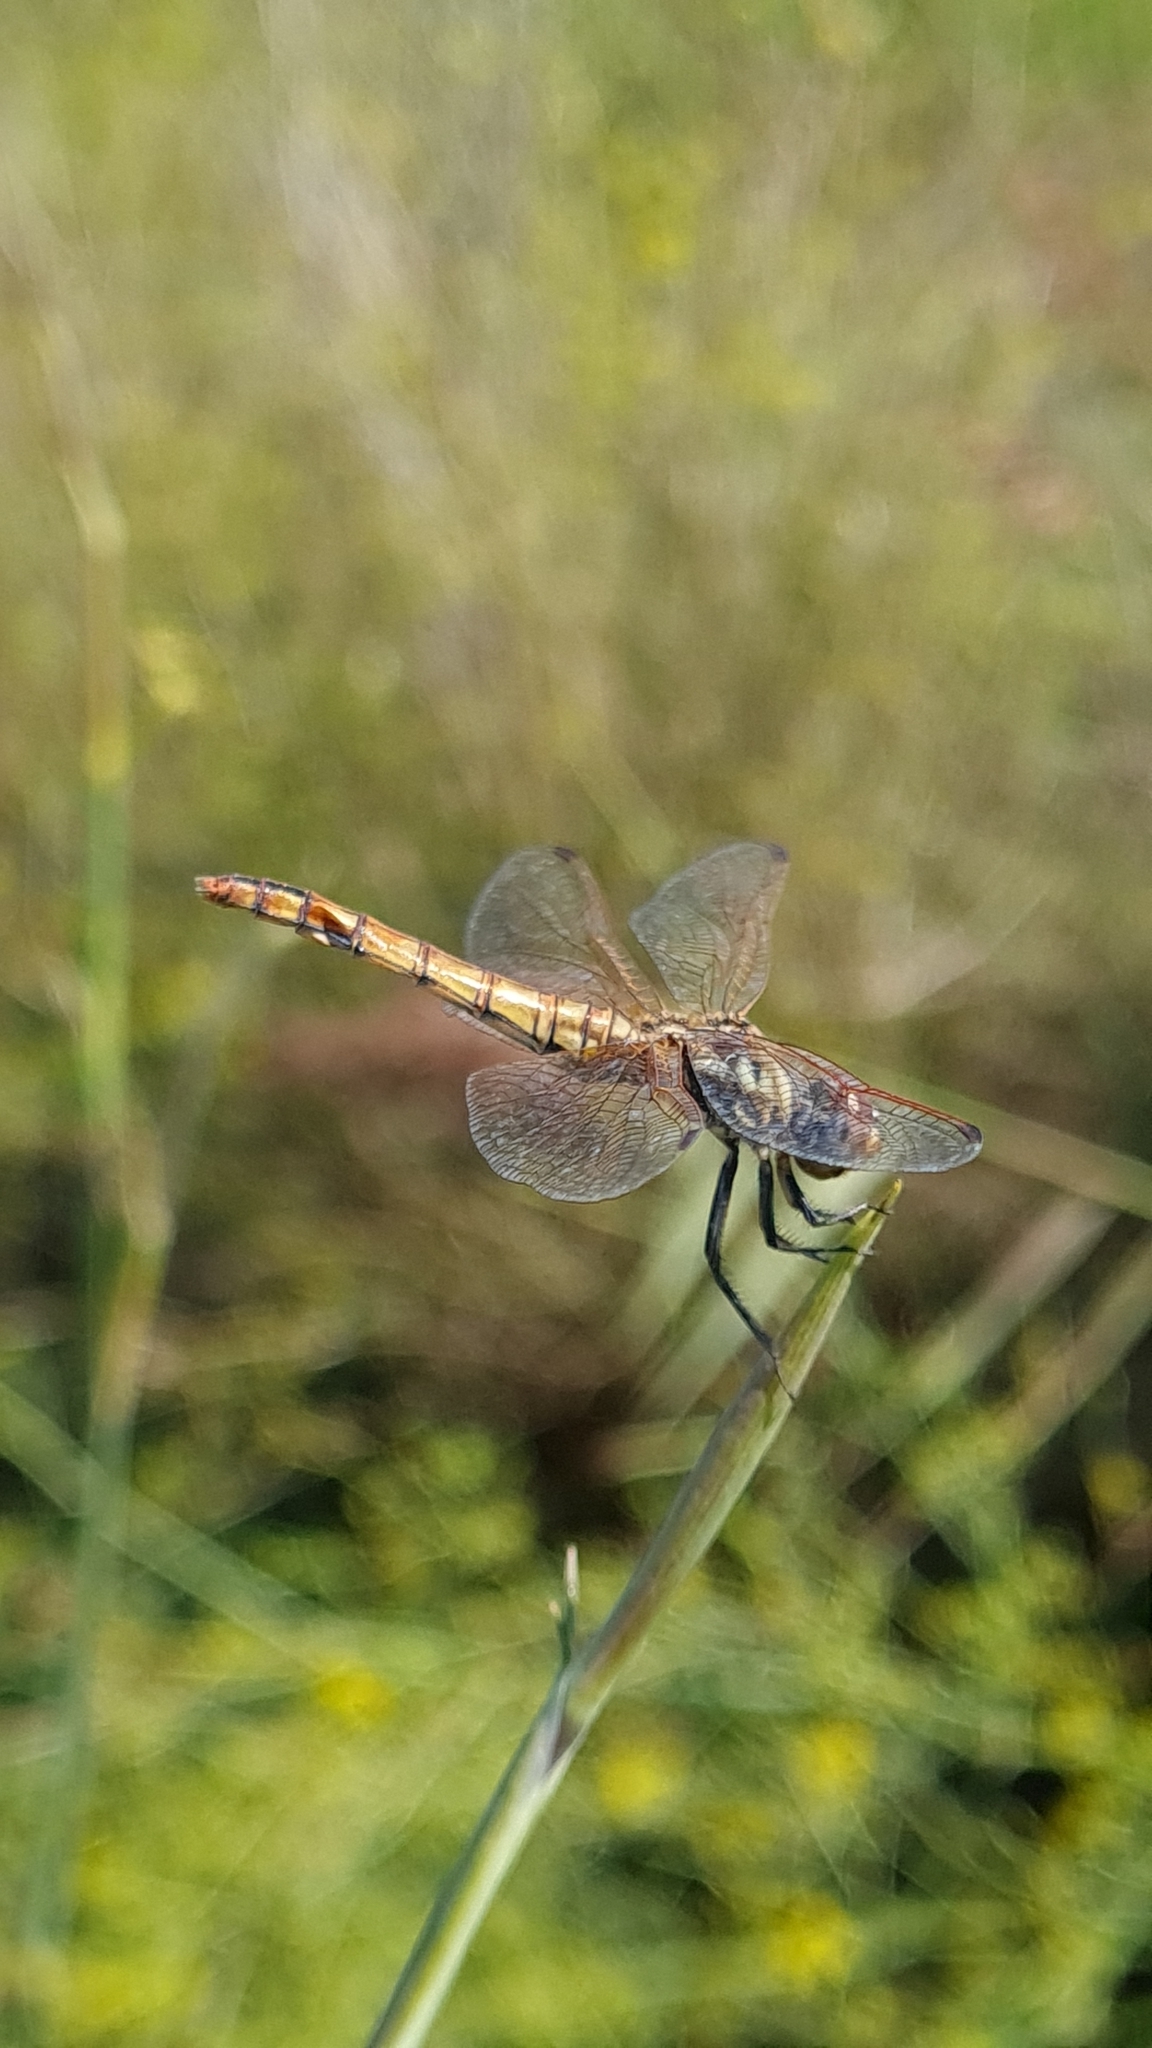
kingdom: Animalia
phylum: Arthropoda
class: Insecta
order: Odonata
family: Libellulidae
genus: Trithemis
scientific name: Trithemis annulata
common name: Violet dropwing
